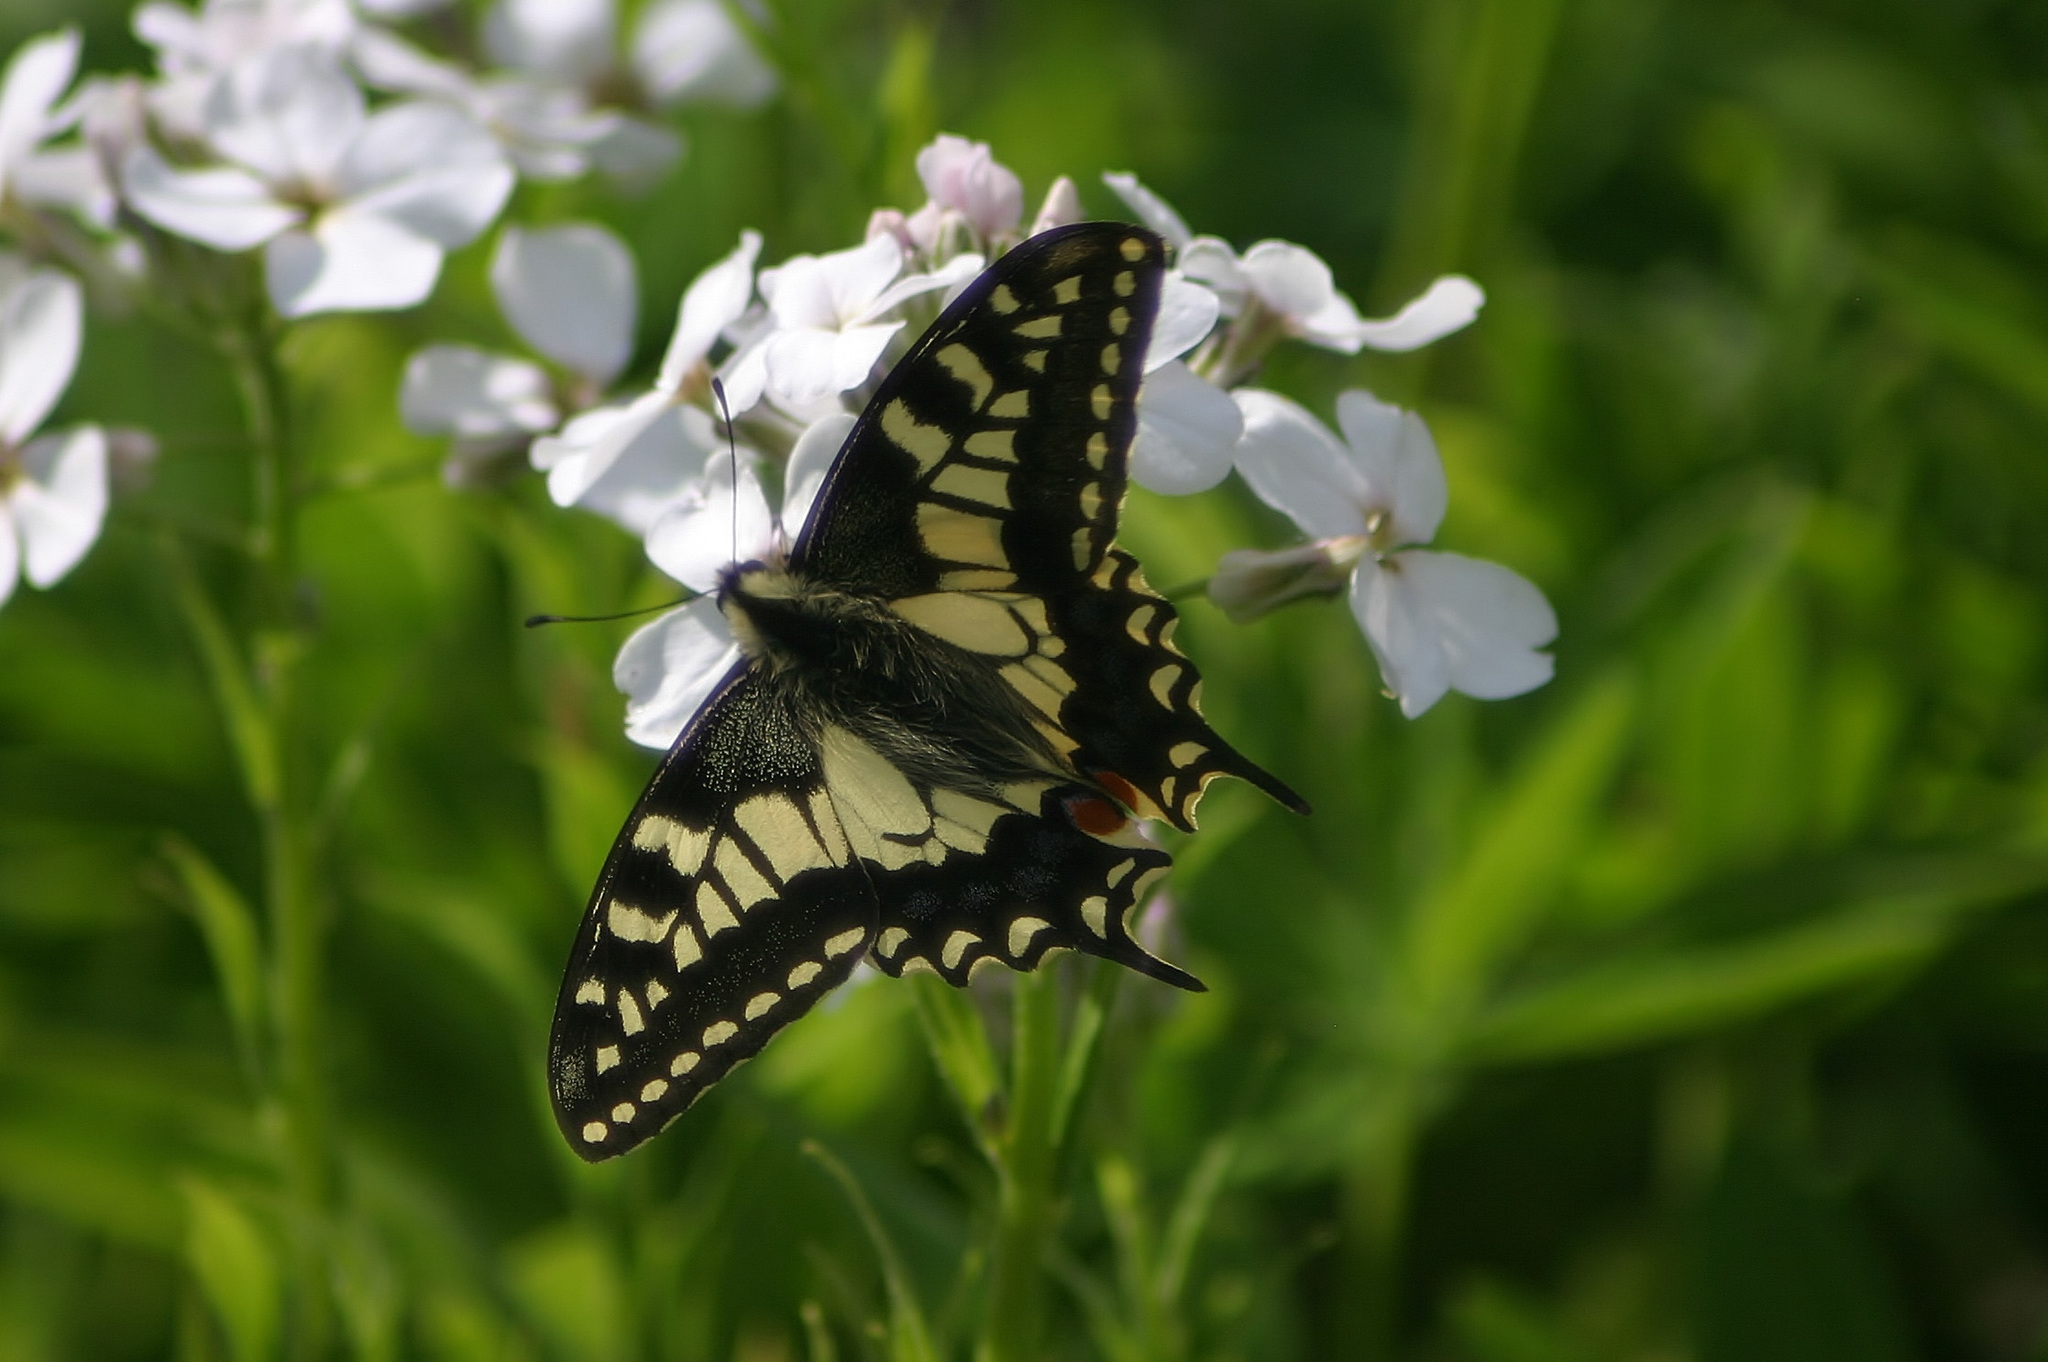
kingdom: Animalia
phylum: Arthropoda
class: Insecta
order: Lepidoptera
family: Papilionidae
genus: Papilio
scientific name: Papilio machaon
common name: Swallowtail
